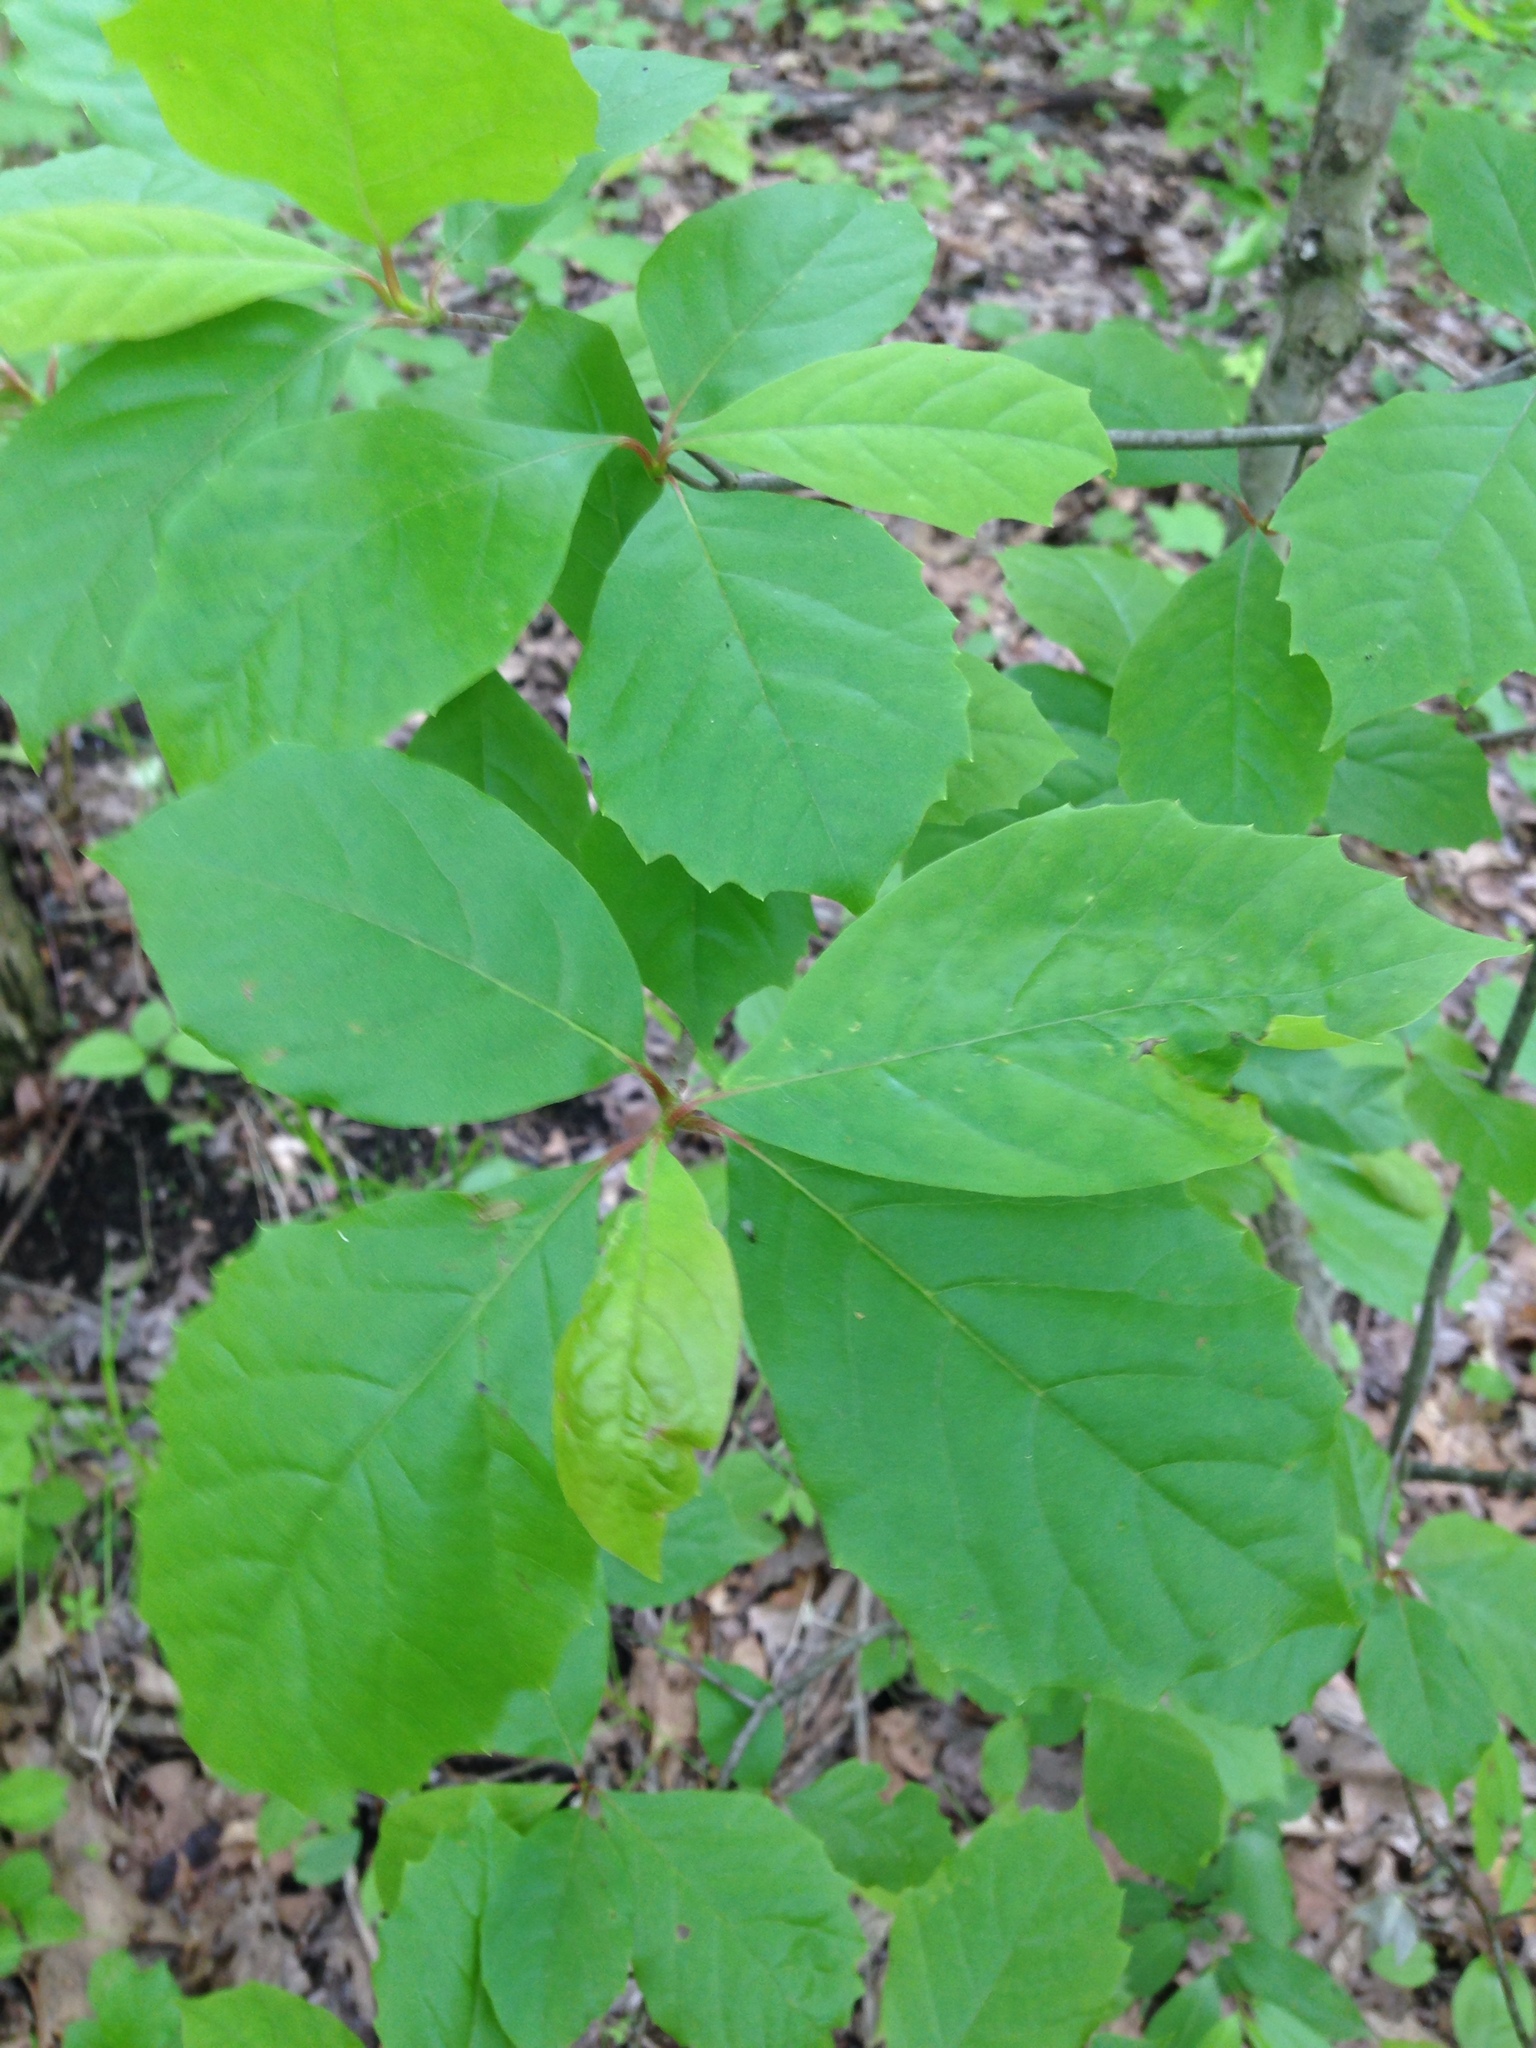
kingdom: Plantae
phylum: Tracheophyta
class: Magnoliopsida
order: Cornales
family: Nyssaceae
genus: Nyssa
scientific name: Nyssa sylvatica
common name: Black tupelo
